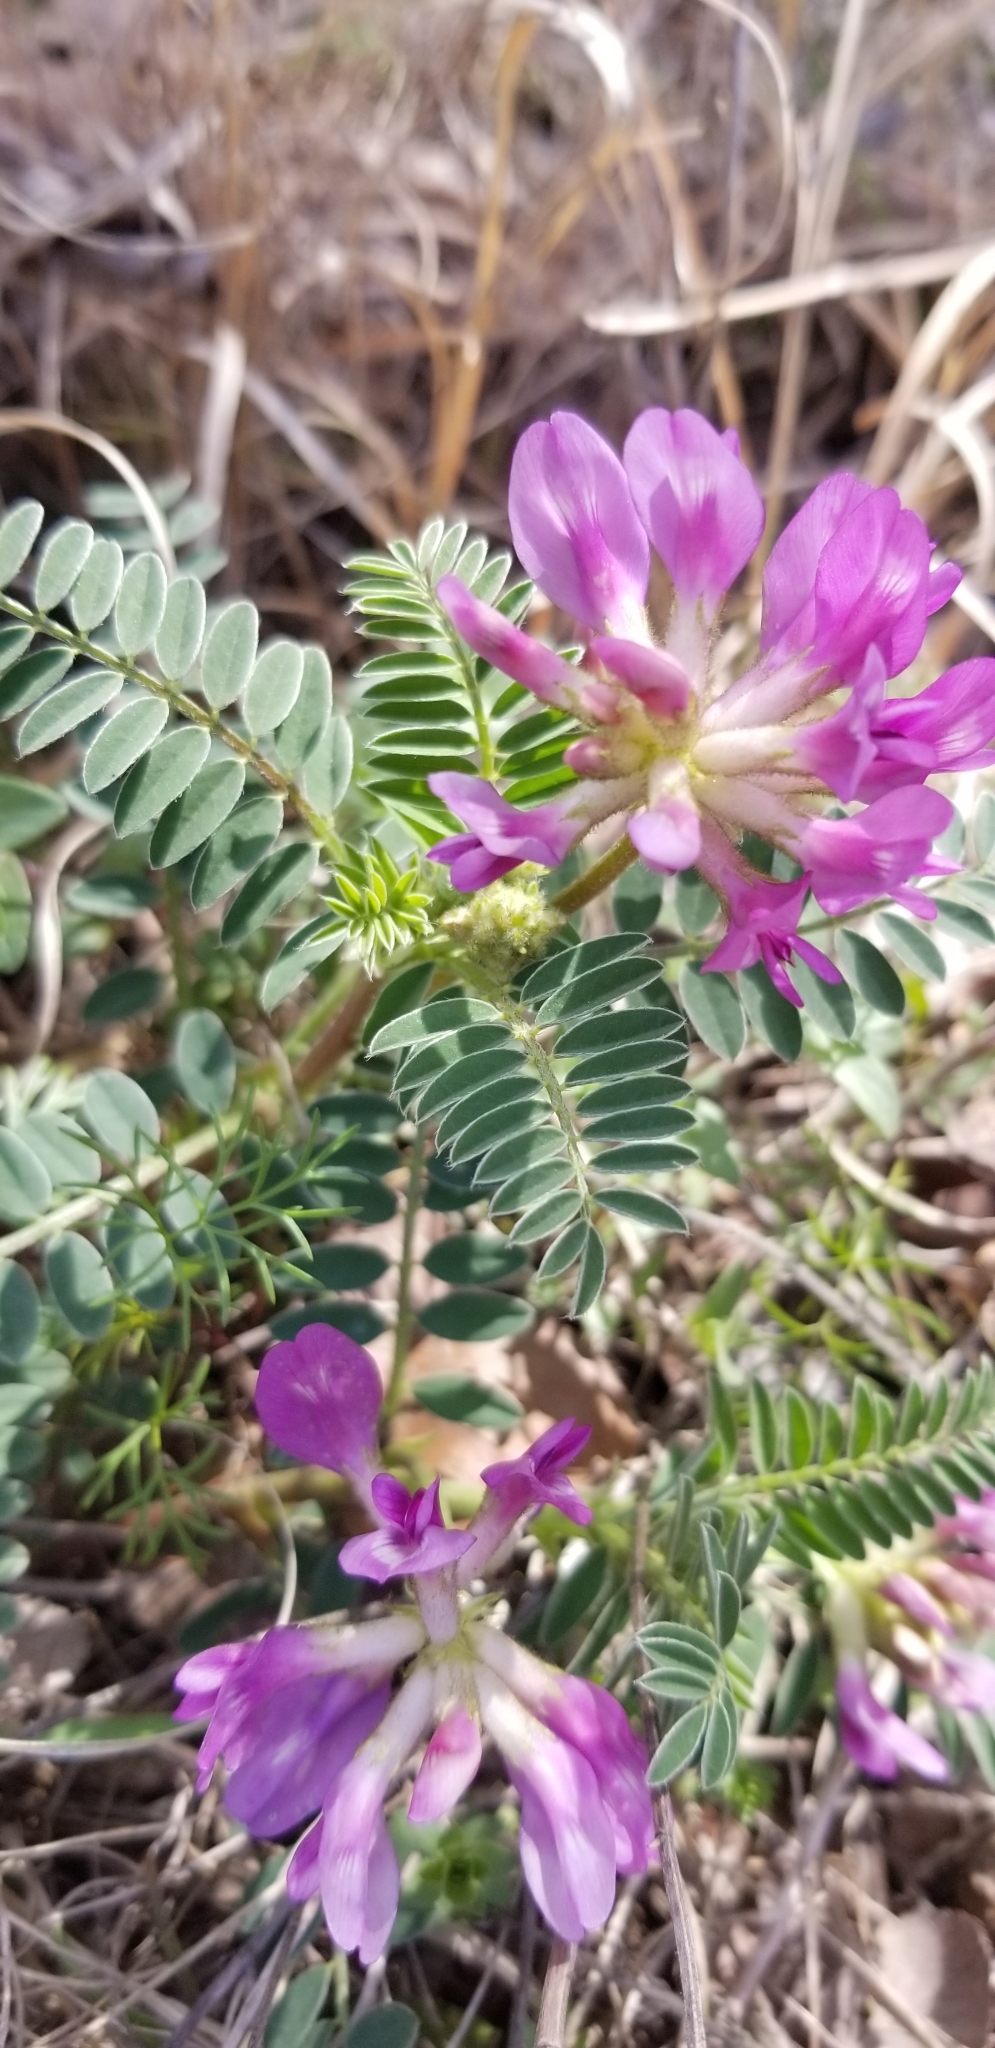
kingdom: Plantae
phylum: Tracheophyta
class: Magnoliopsida
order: Fabales
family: Fabaceae
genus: Astragalus
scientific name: Astragalus crassicarpus
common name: Ground-plum milk-vetch
